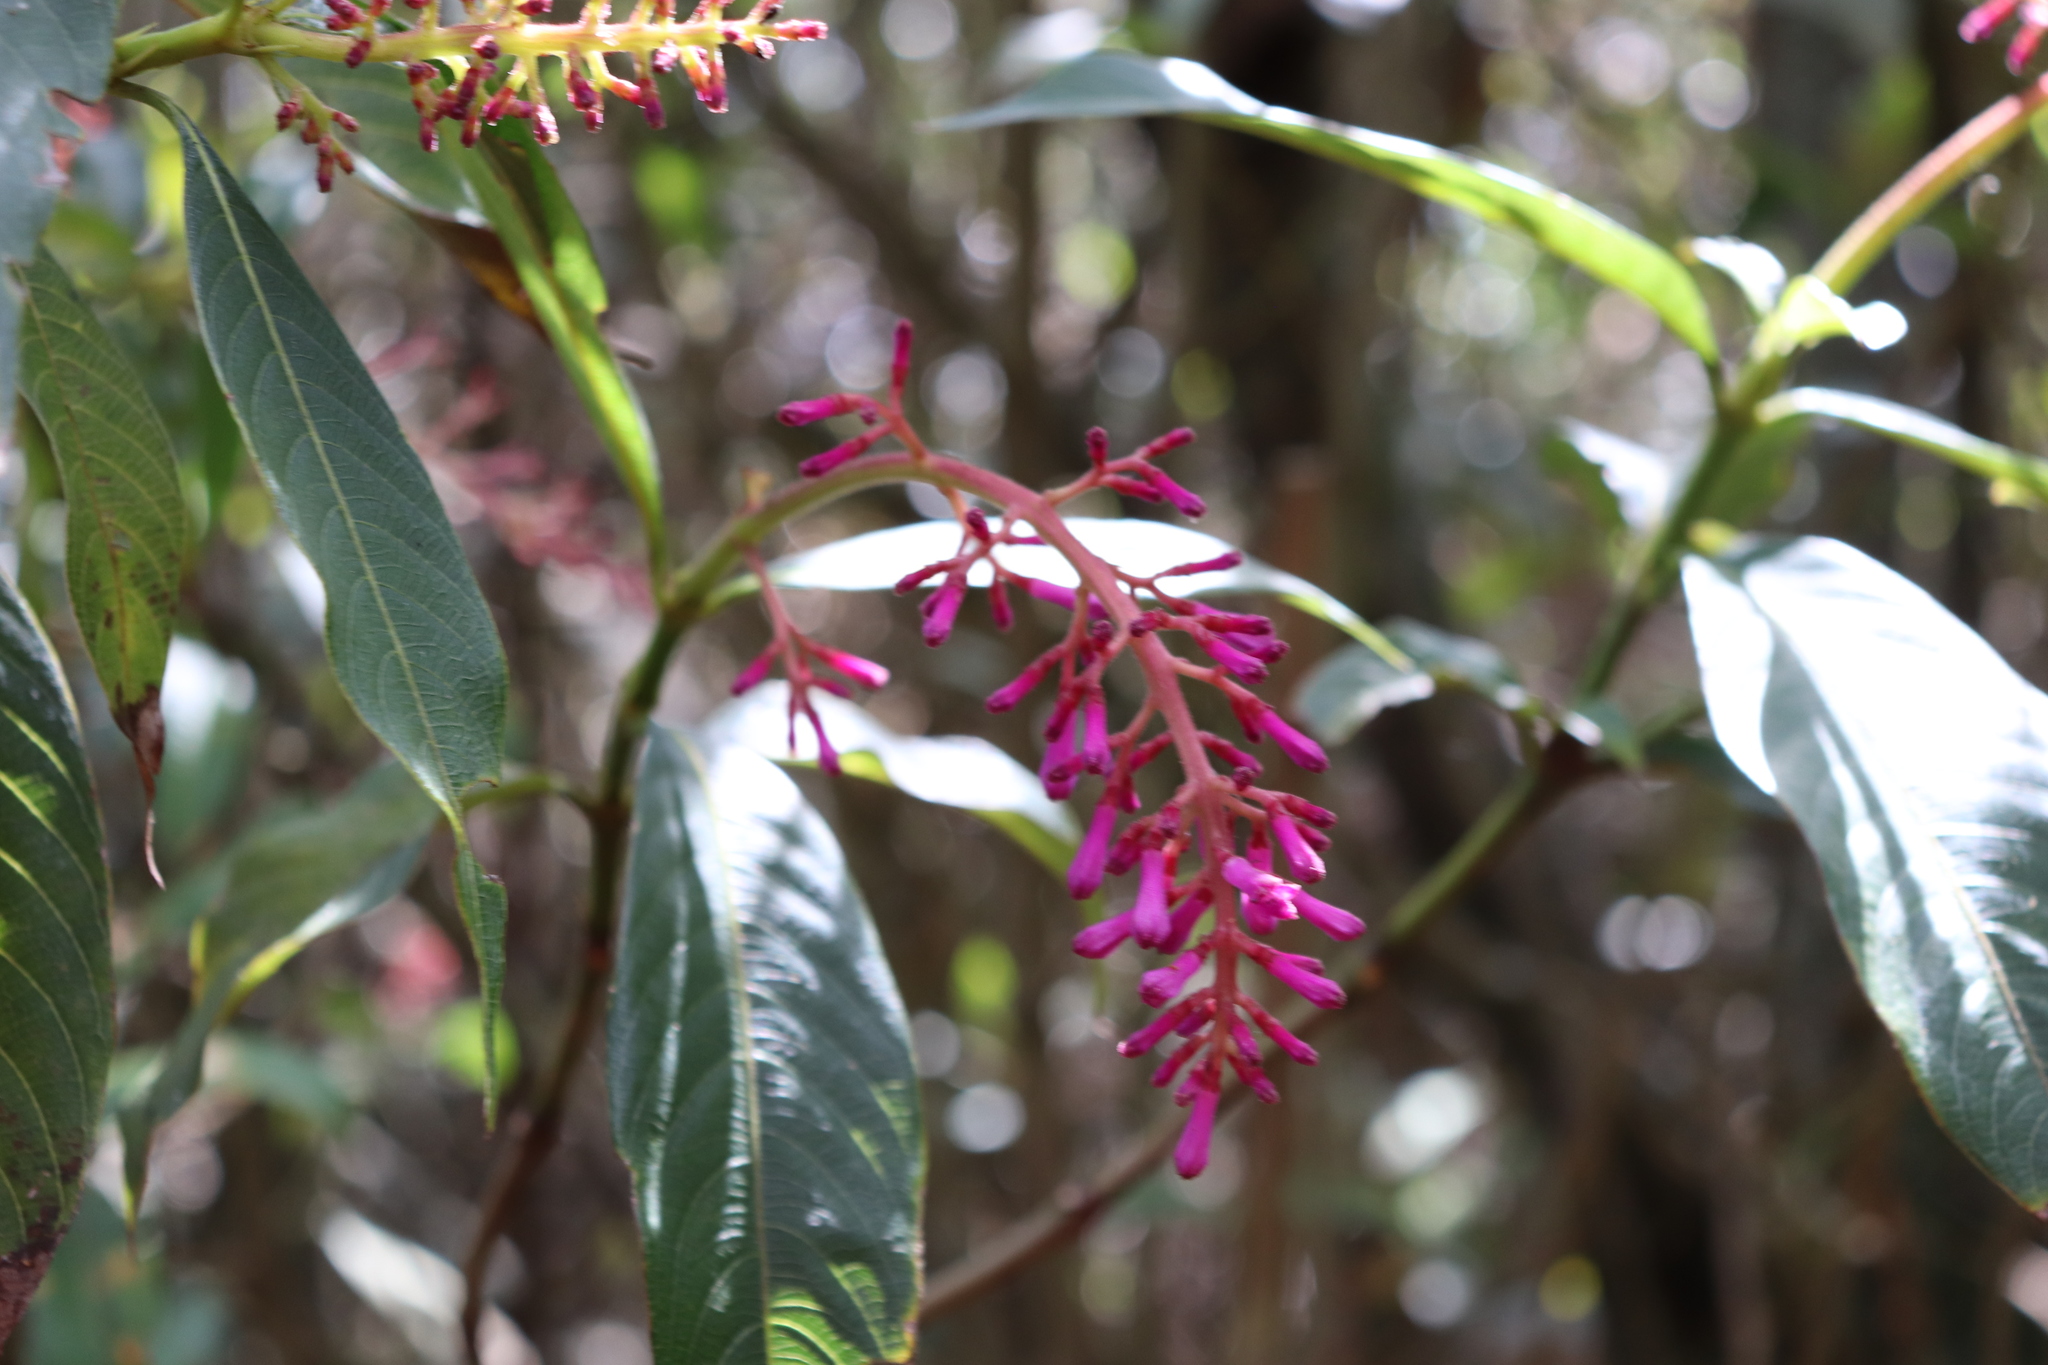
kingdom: Plantae
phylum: Tracheophyta
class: Magnoliopsida
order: Gentianales
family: Rubiaceae
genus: Palicourea
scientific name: Palicourea angustifolia
